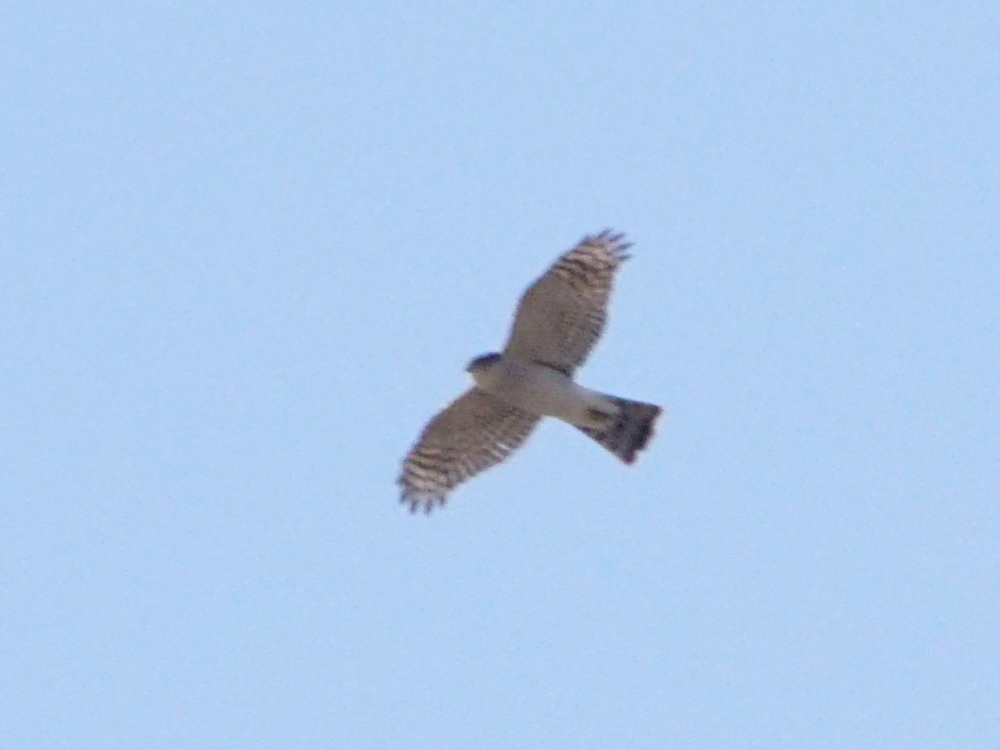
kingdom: Animalia
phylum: Chordata
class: Aves
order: Accipitriformes
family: Accipitridae
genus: Accipiter
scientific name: Accipiter nisus
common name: Eurasian sparrowhawk
